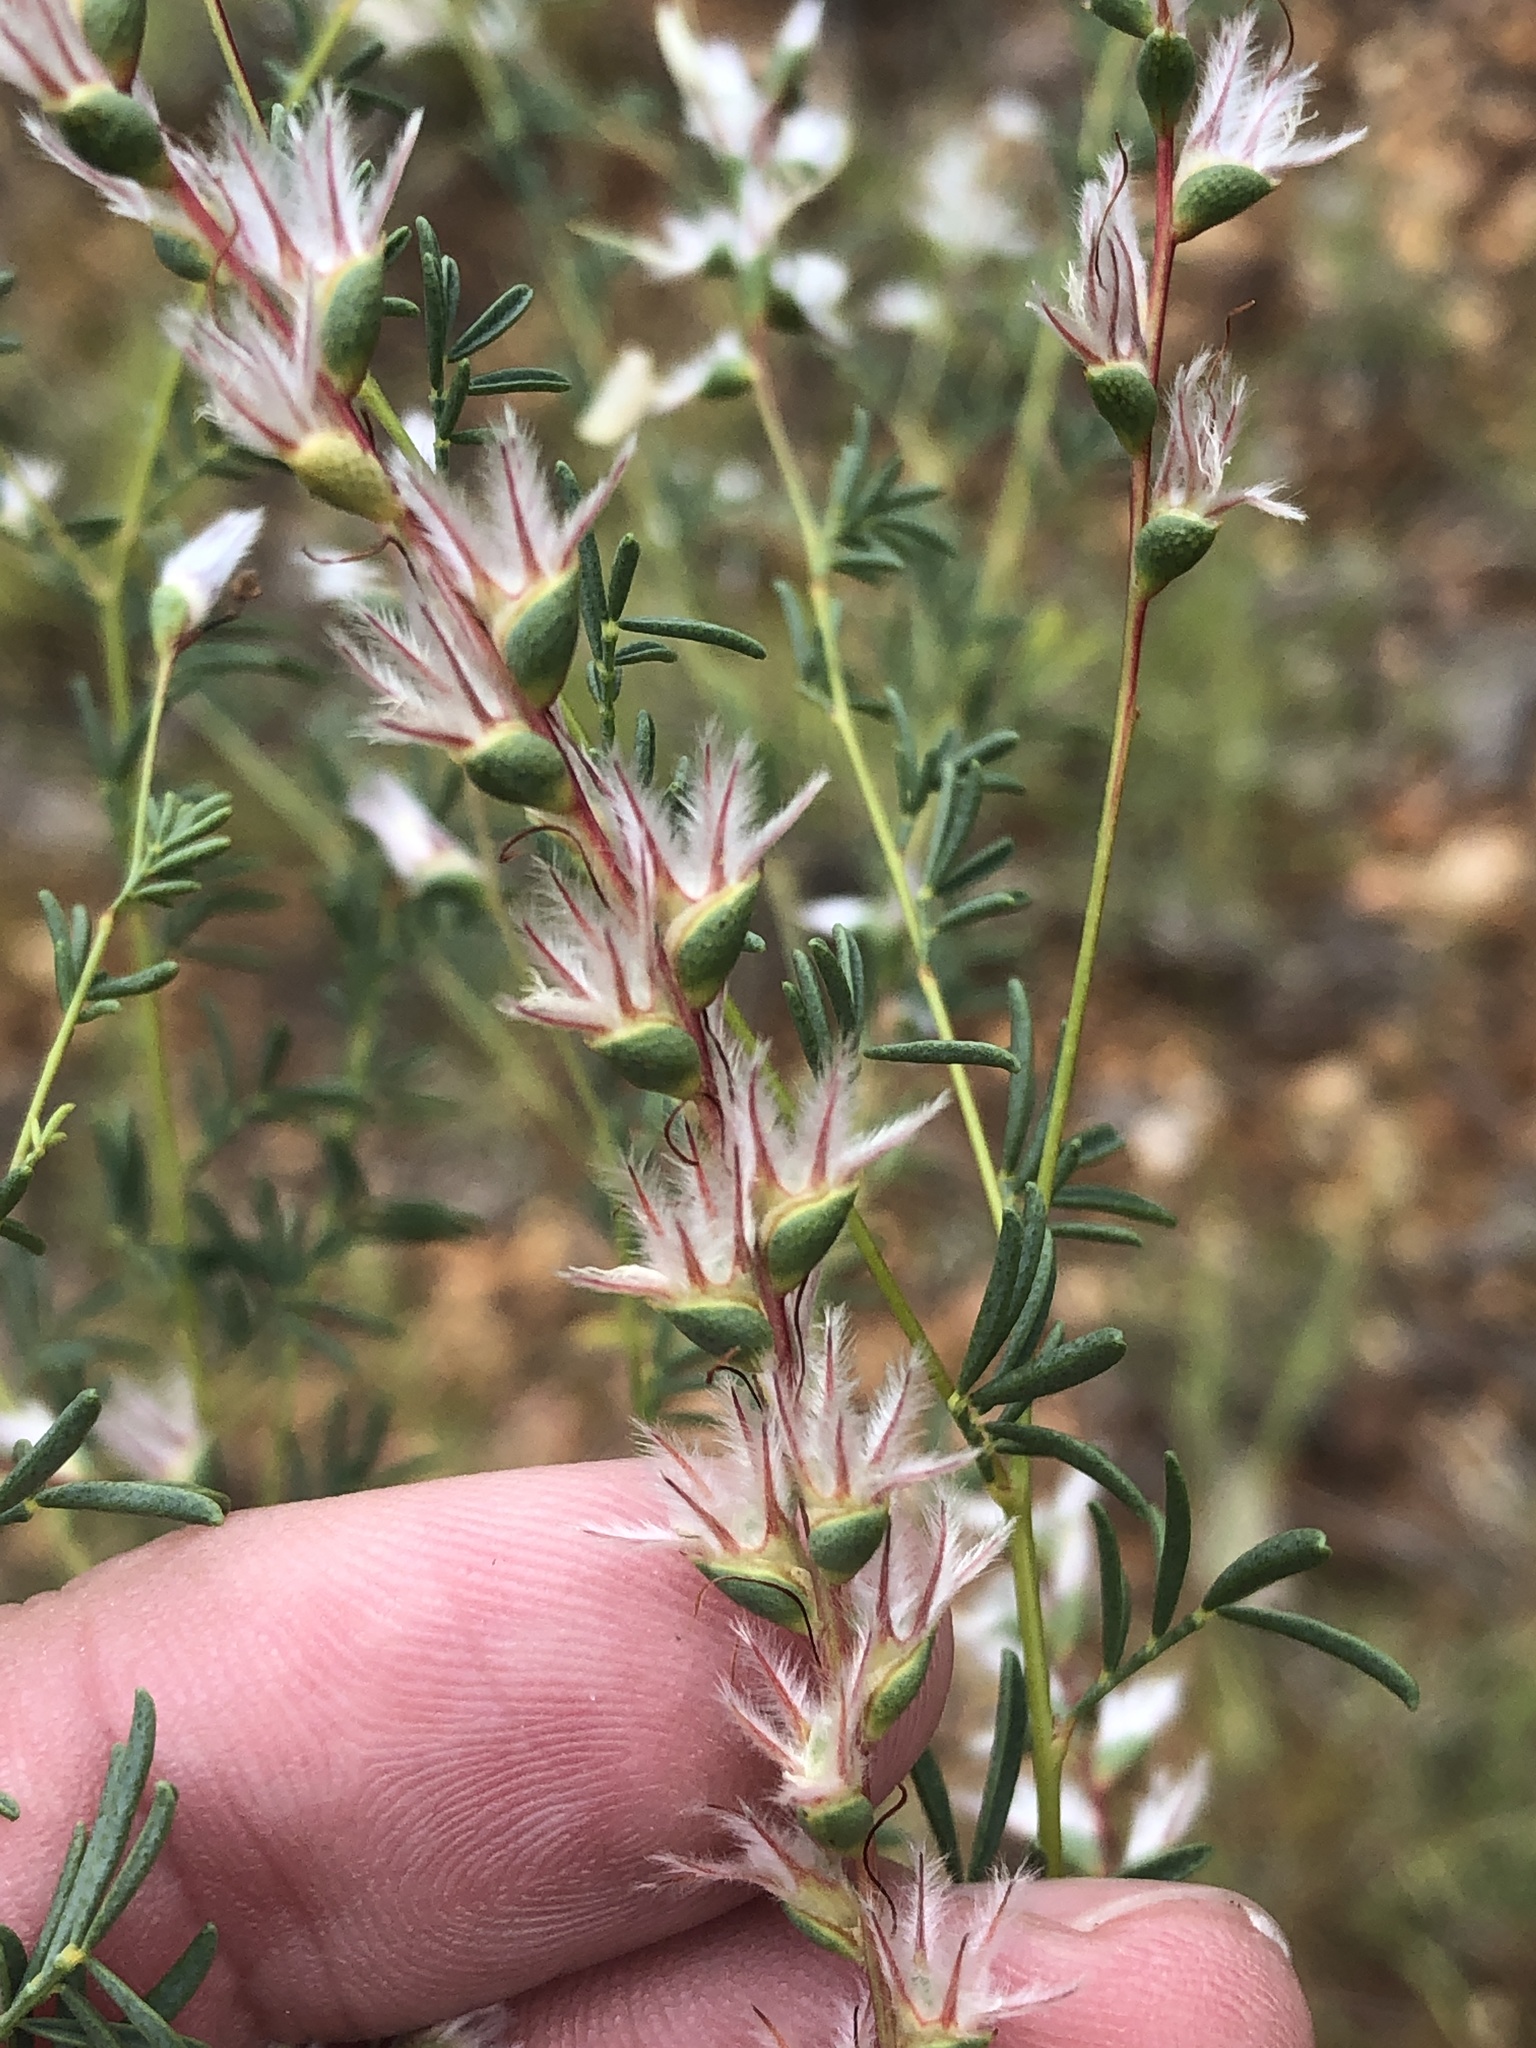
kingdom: Plantae
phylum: Tracheophyta
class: Magnoliopsida
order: Fabales
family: Fabaceae
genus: Dalea
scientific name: Dalea enneandra
